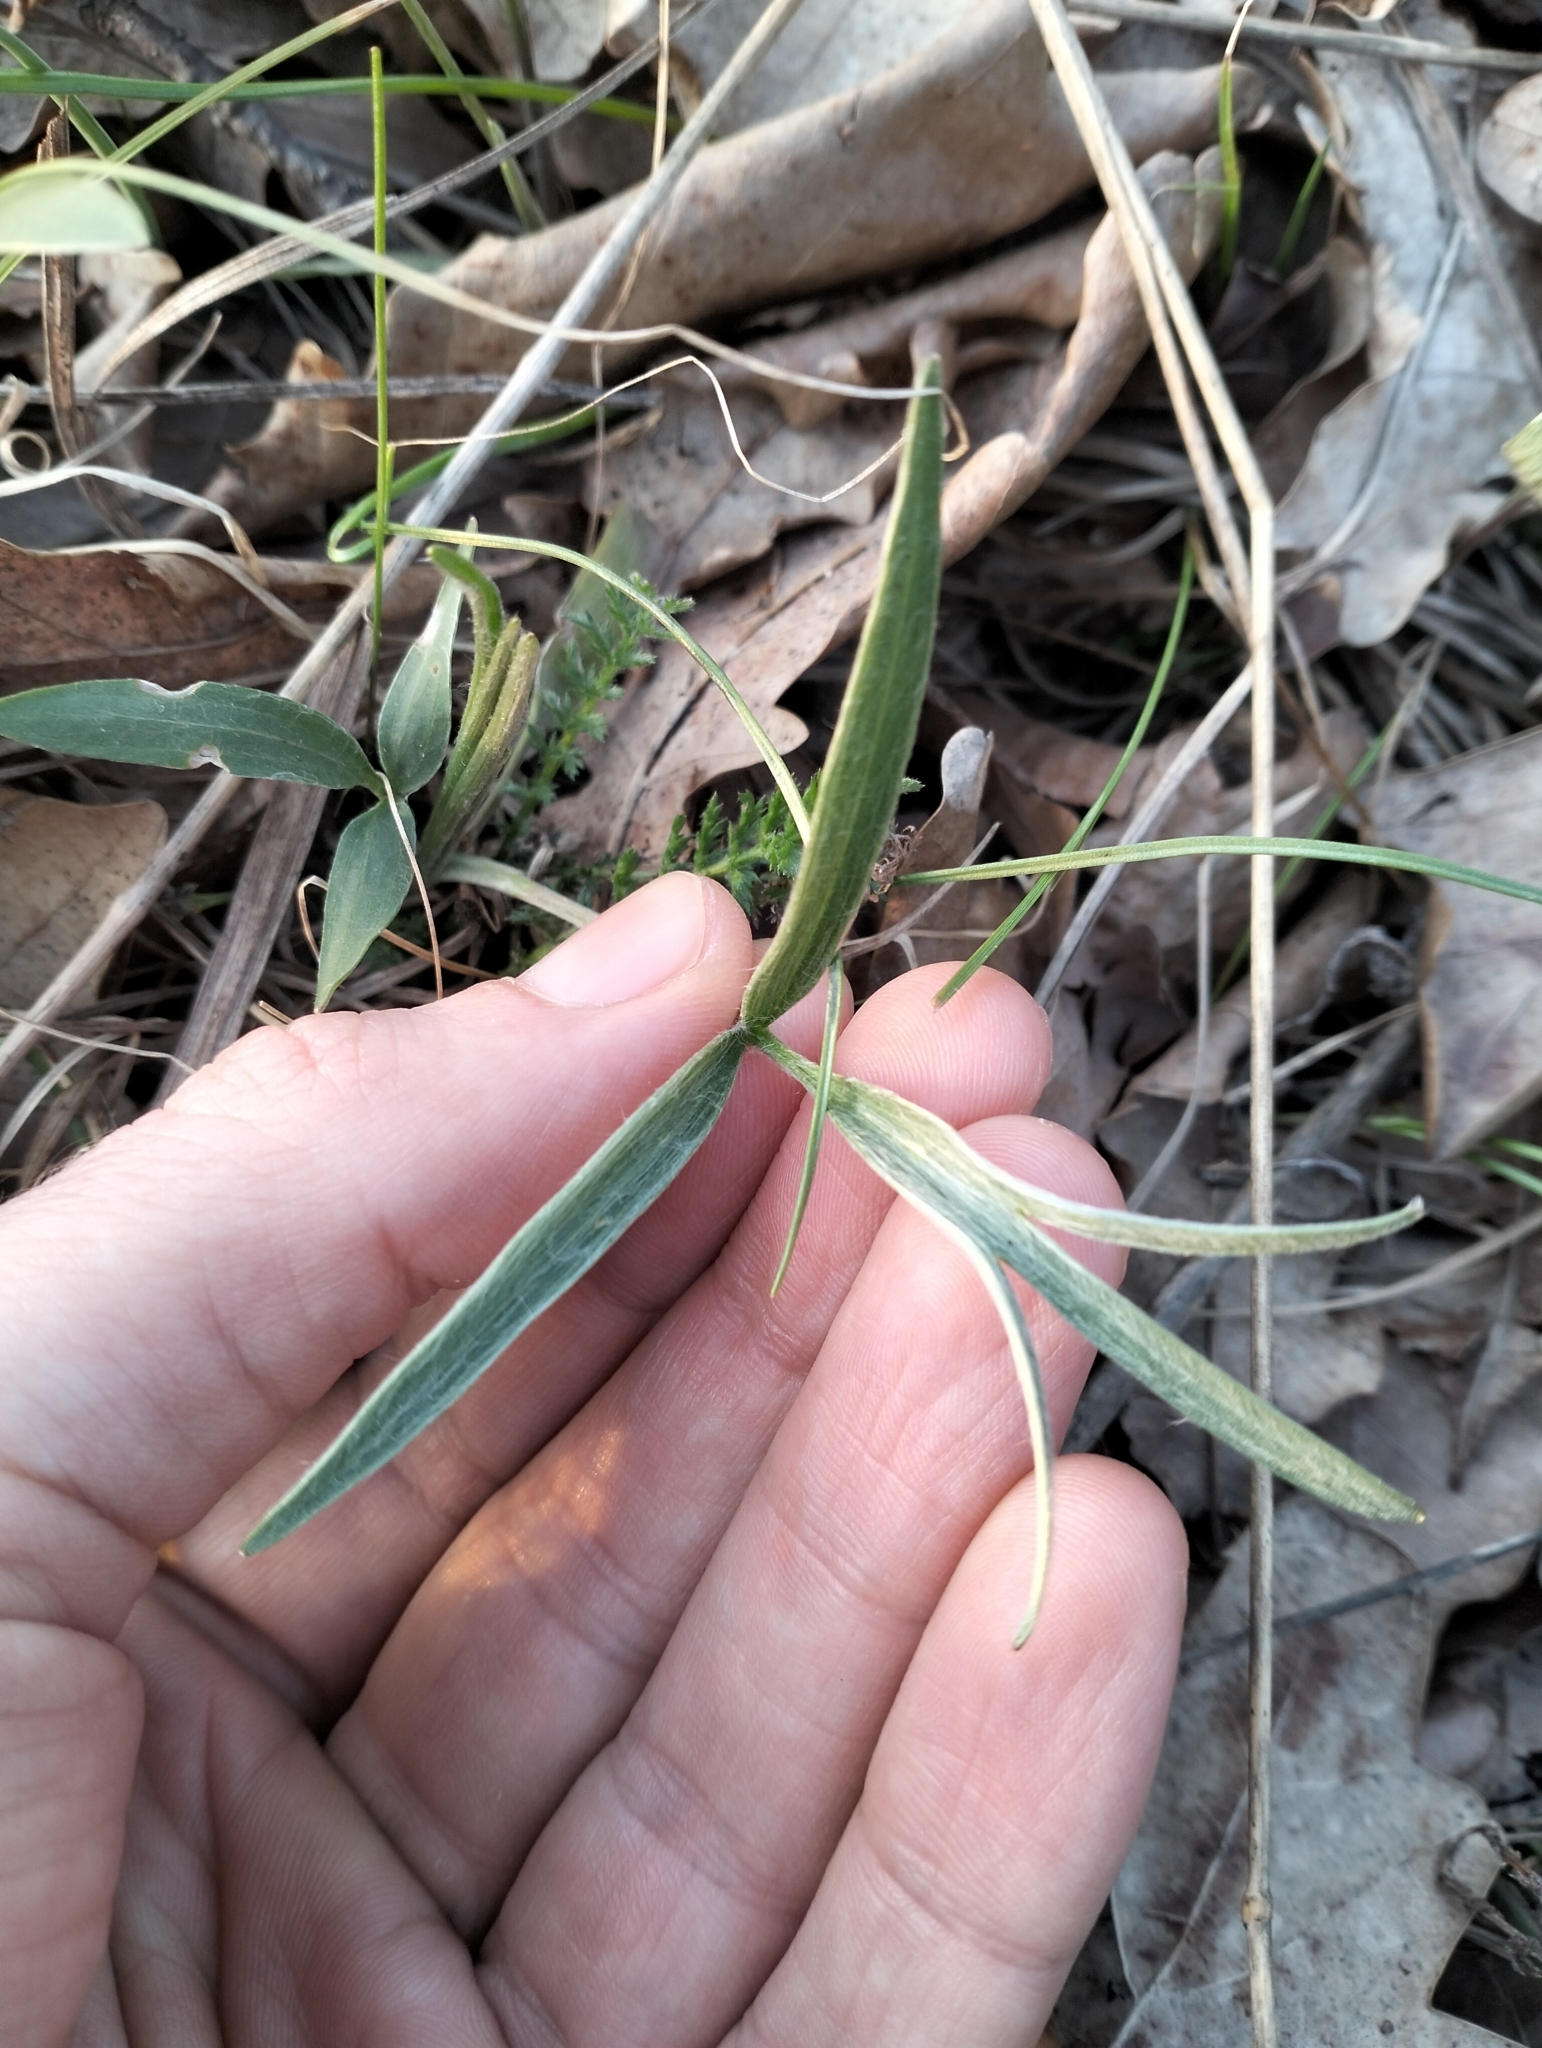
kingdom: Plantae
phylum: Tracheophyta
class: Magnoliopsida
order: Ranunculales
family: Ranunculaceae
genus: Ranunculus
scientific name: Ranunculus illyricus
